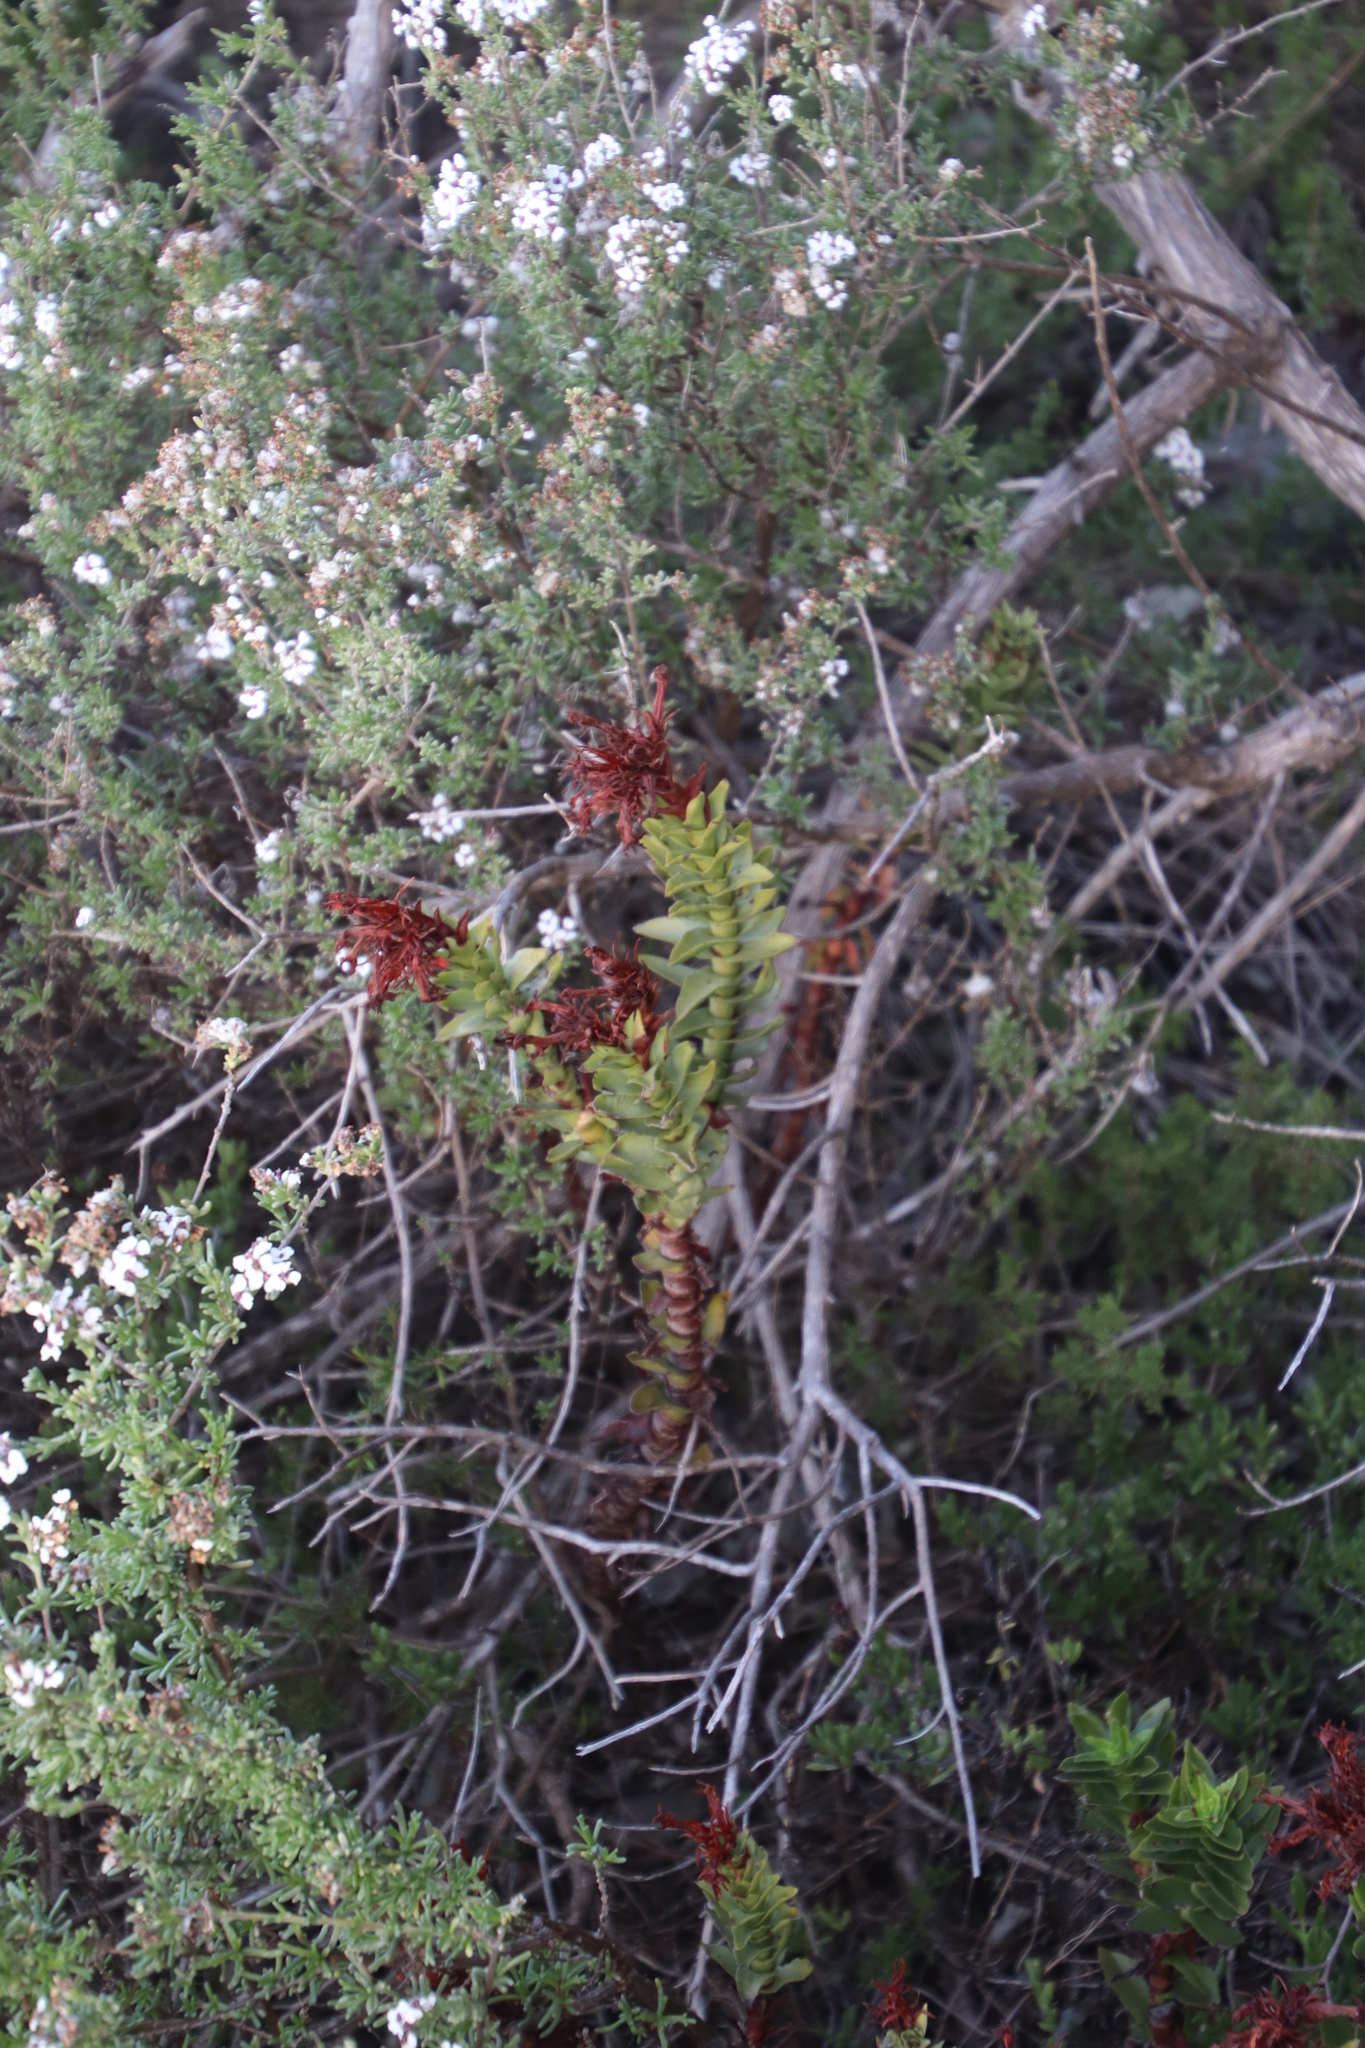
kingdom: Plantae
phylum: Tracheophyta
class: Magnoliopsida
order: Saxifragales
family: Crassulaceae
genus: Crassula
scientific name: Crassula coccinea
